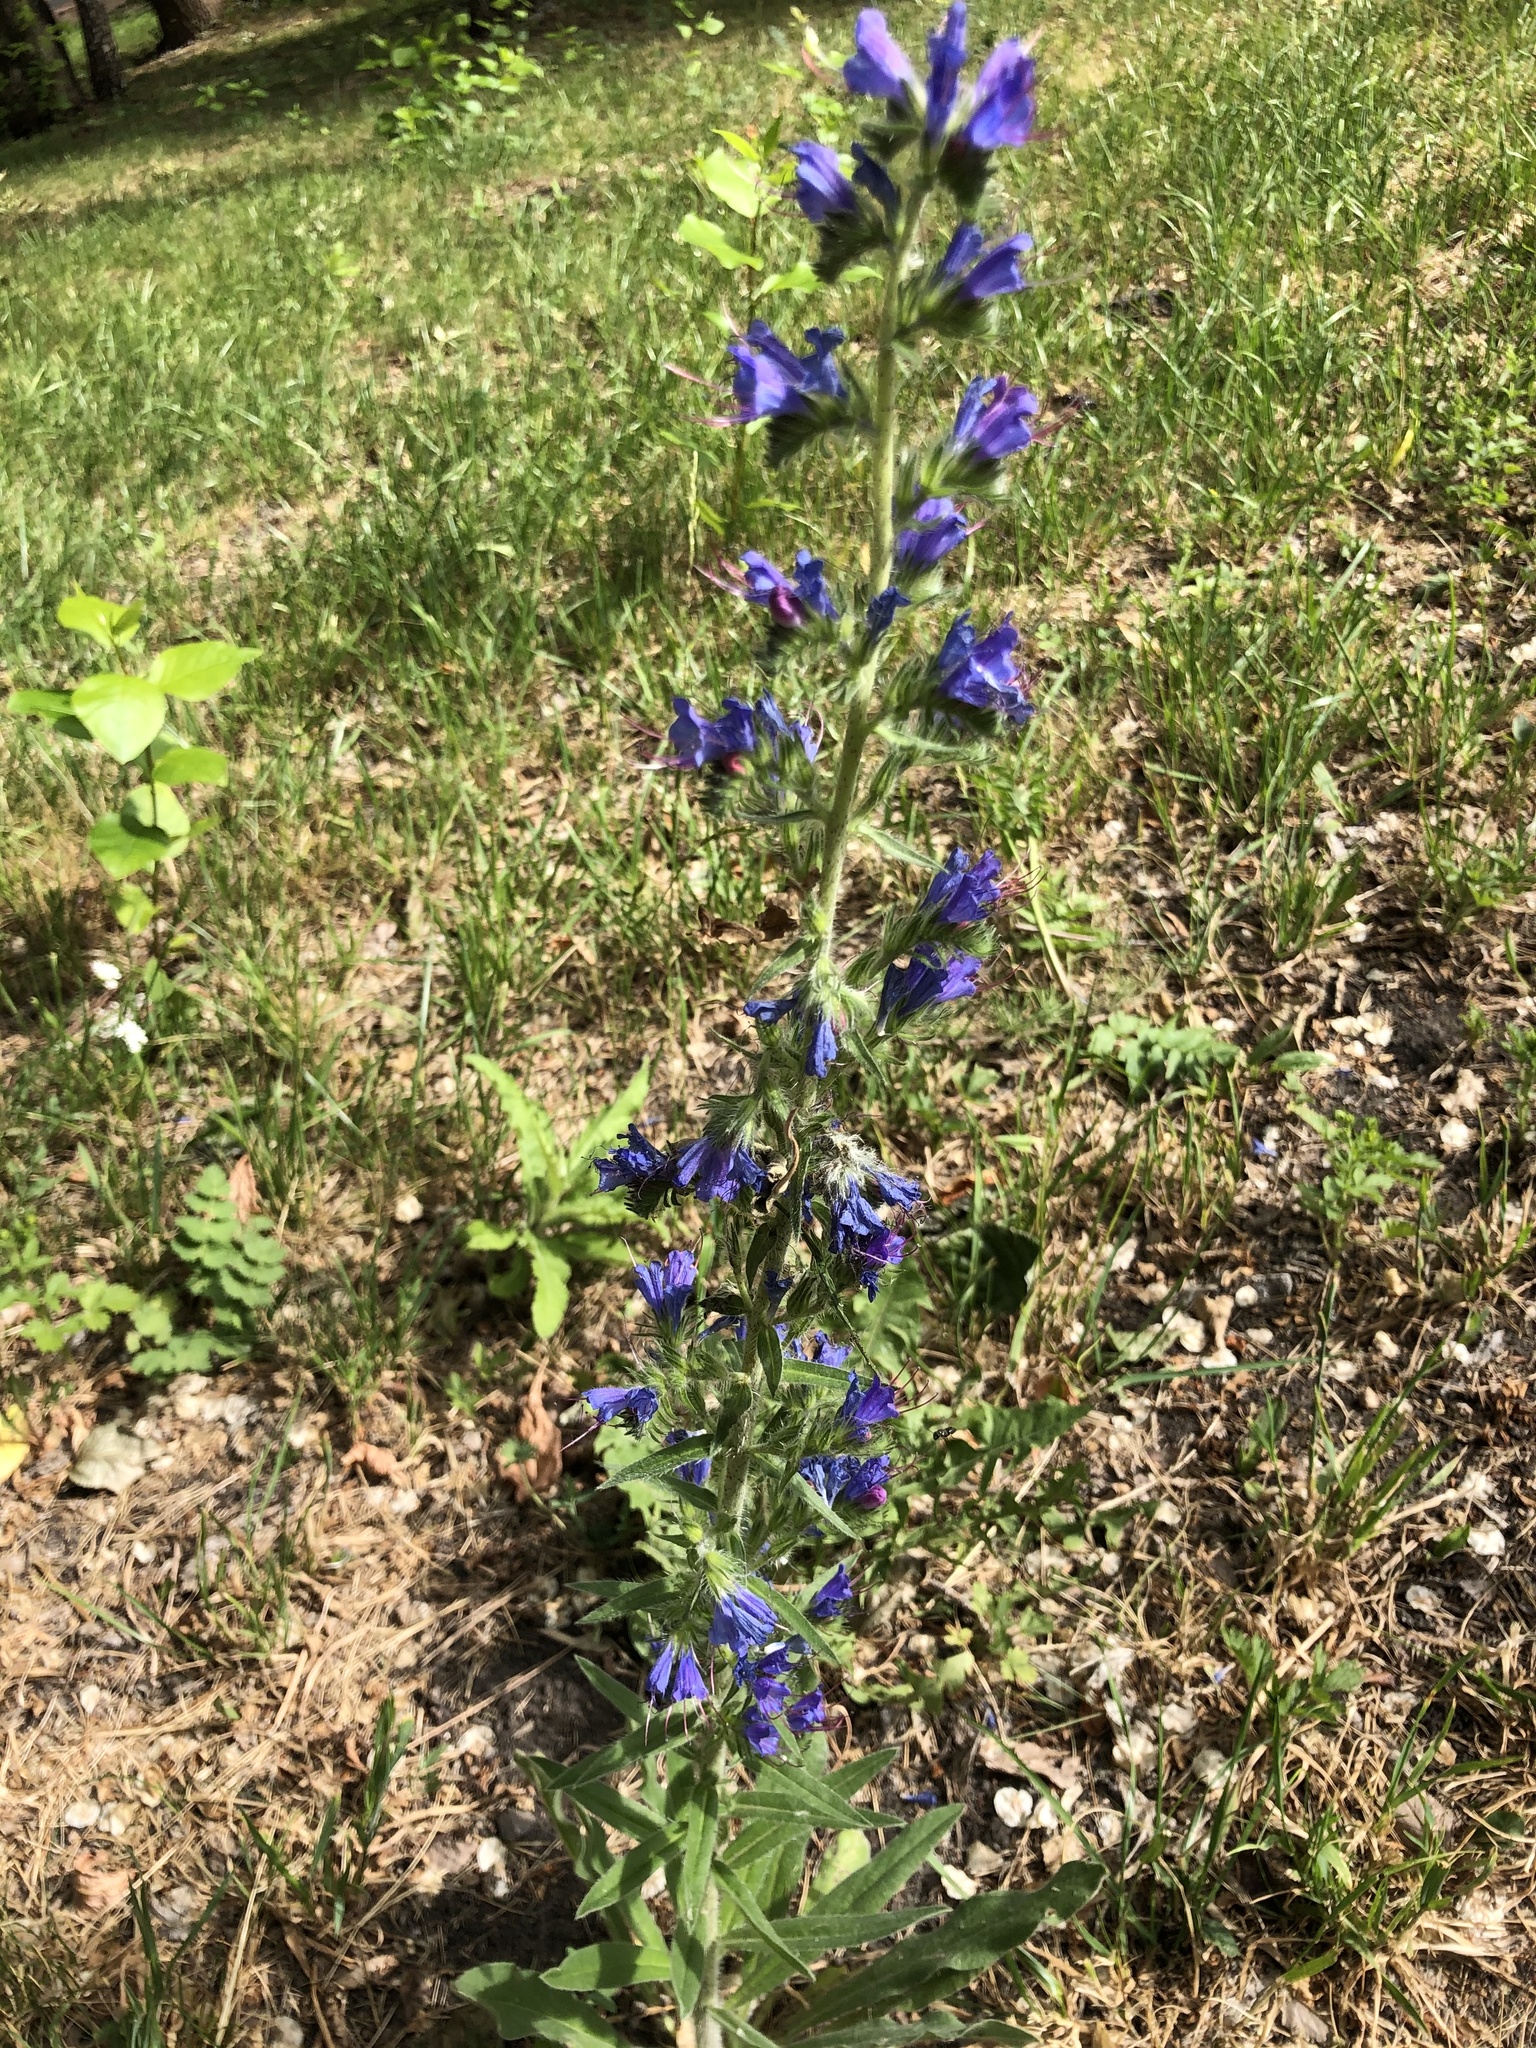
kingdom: Plantae
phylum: Tracheophyta
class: Magnoliopsida
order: Boraginales
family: Boraginaceae
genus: Echium
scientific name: Echium vulgare
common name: Common viper's bugloss
